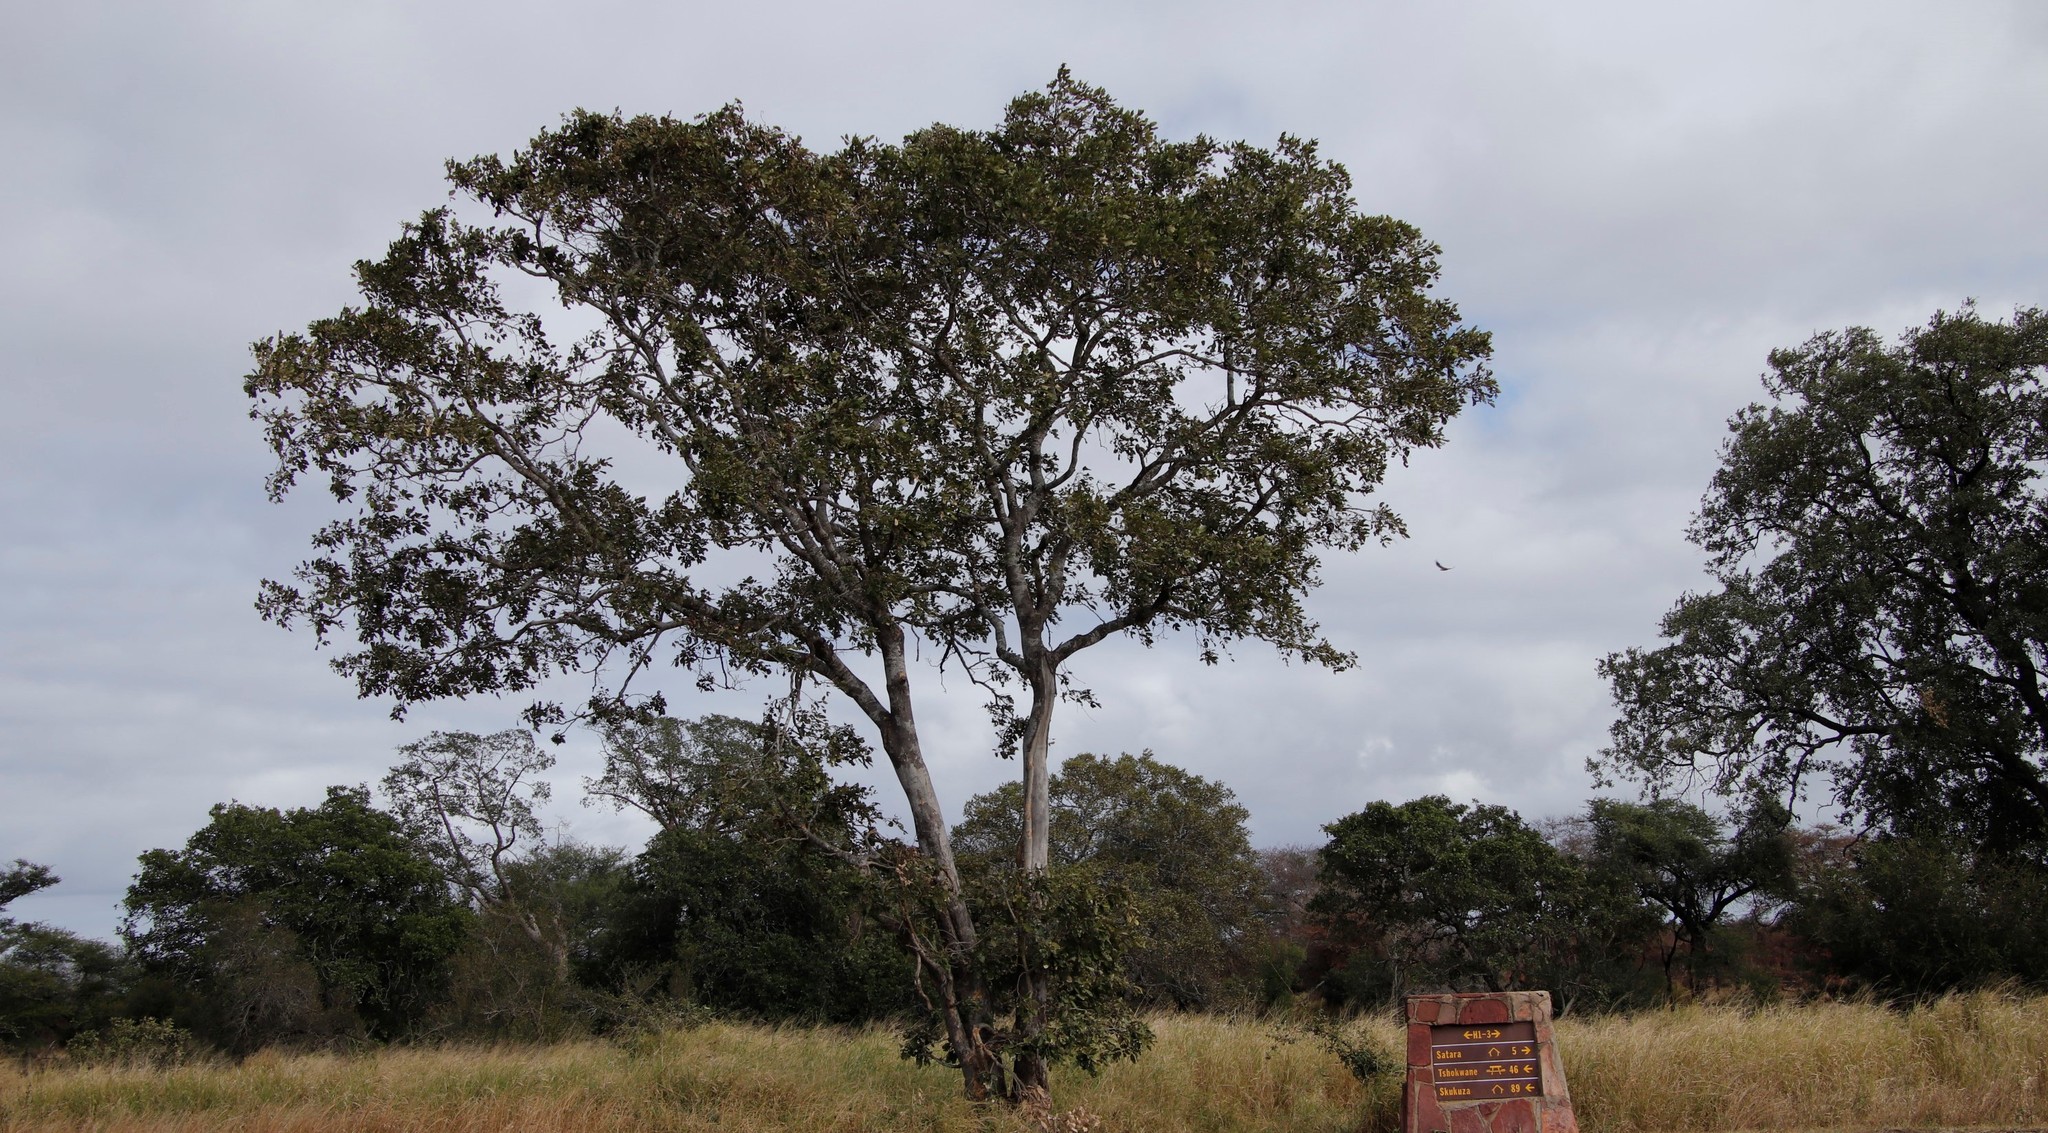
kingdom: Plantae
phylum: Tracheophyta
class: Magnoliopsida
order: Fabales
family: Fabaceae
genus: Philenoptera
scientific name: Philenoptera violacea
